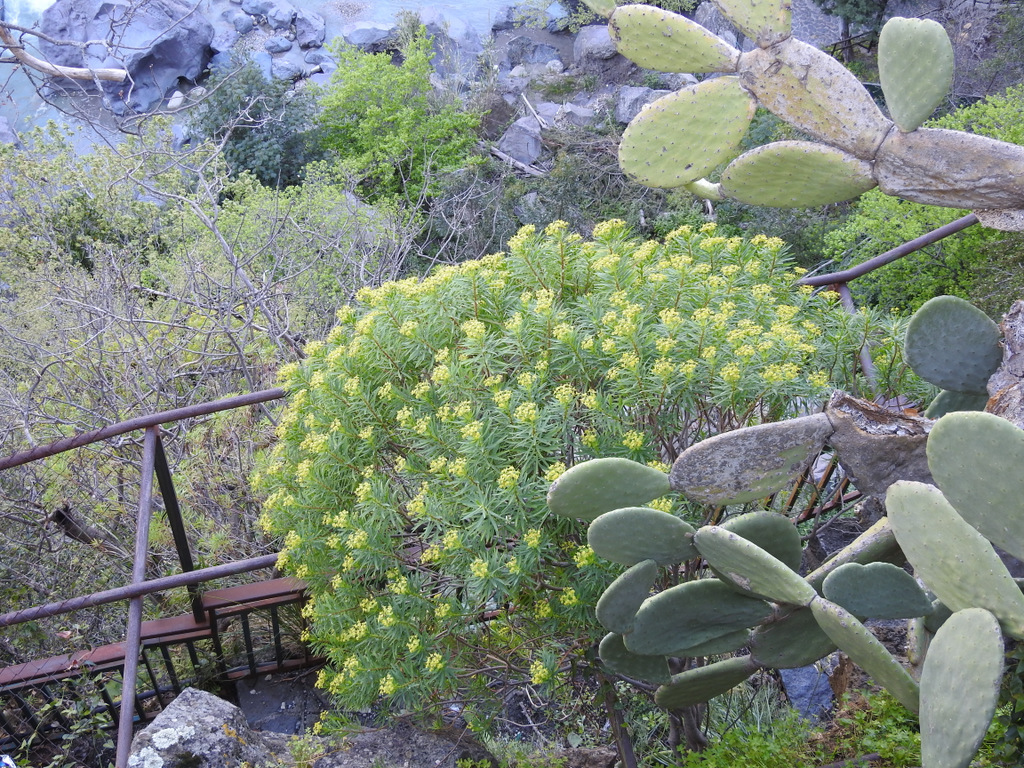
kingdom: Plantae
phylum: Tracheophyta
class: Magnoliopsida
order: Malpighiales
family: Euphorbiaceae
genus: Euphorbia
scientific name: Euphorbia dendroides
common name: Tree spurge
